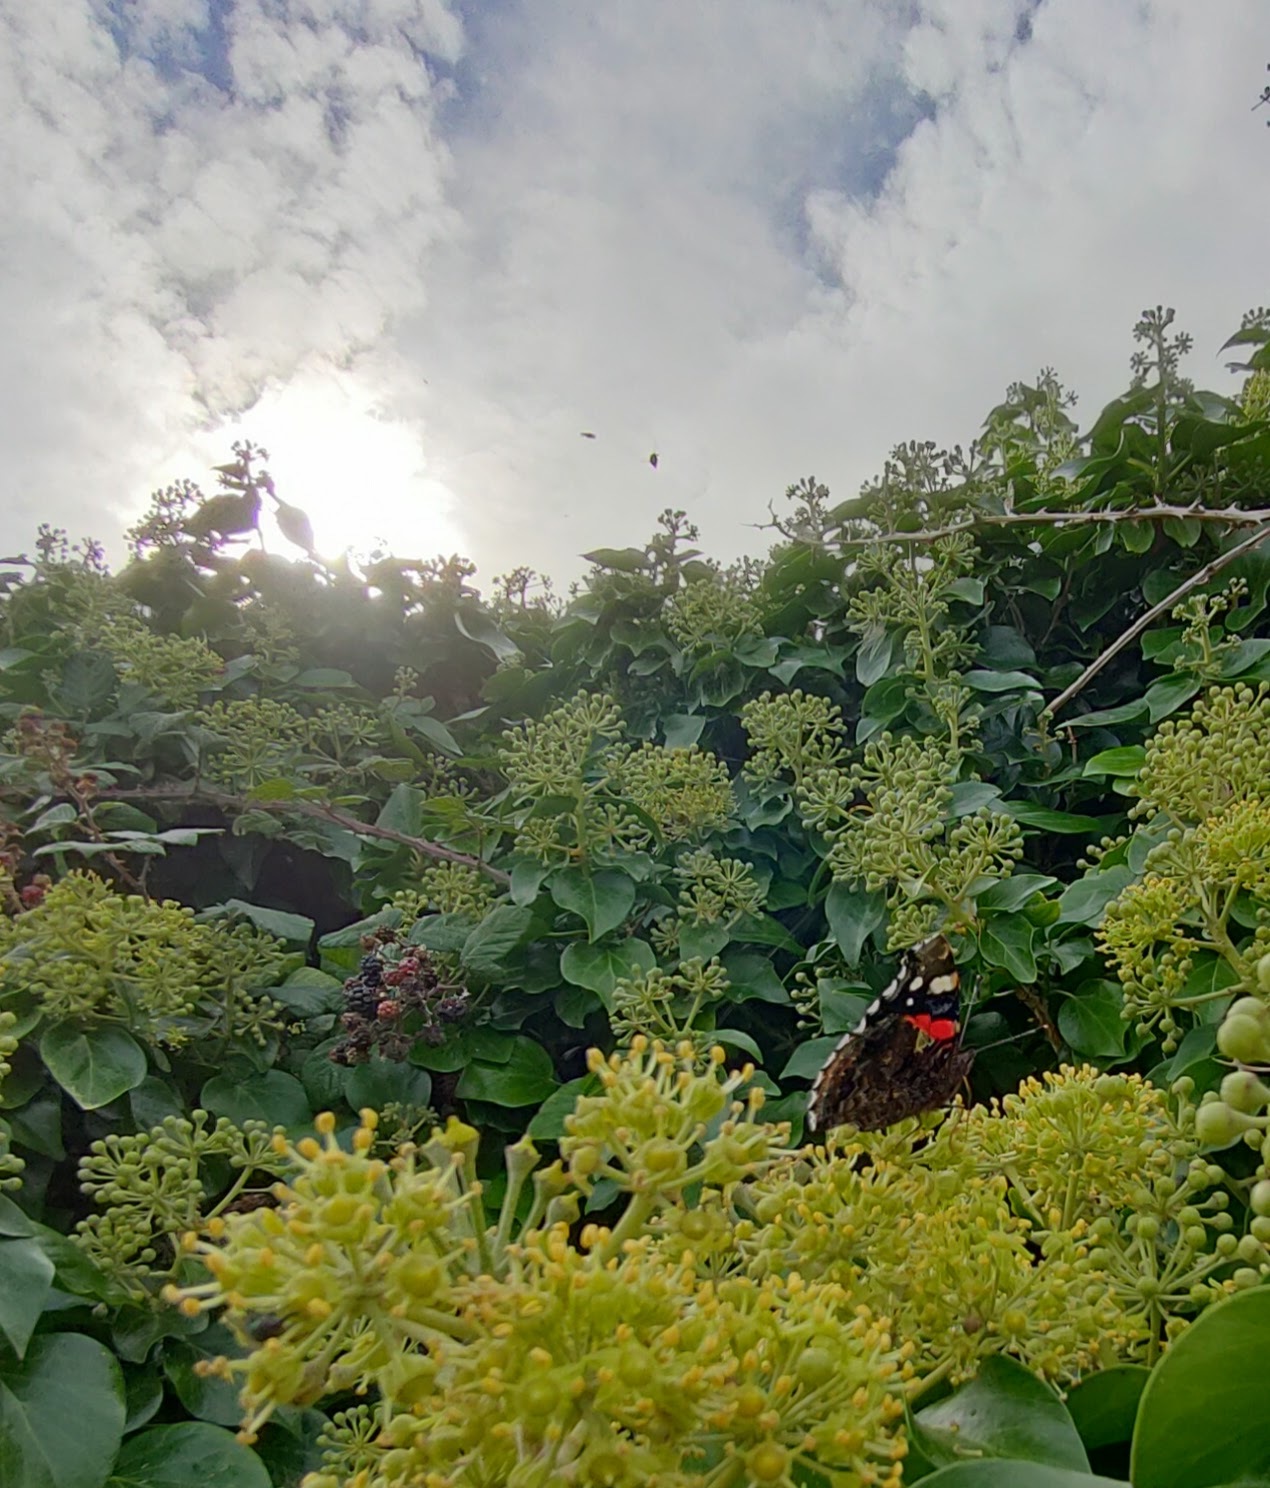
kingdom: Animalia
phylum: Arthropoda
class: Insecta
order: Lepidoptera
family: Nymphalidae
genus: Vanessa
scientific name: Vanessa atalanta
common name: Red admiral
